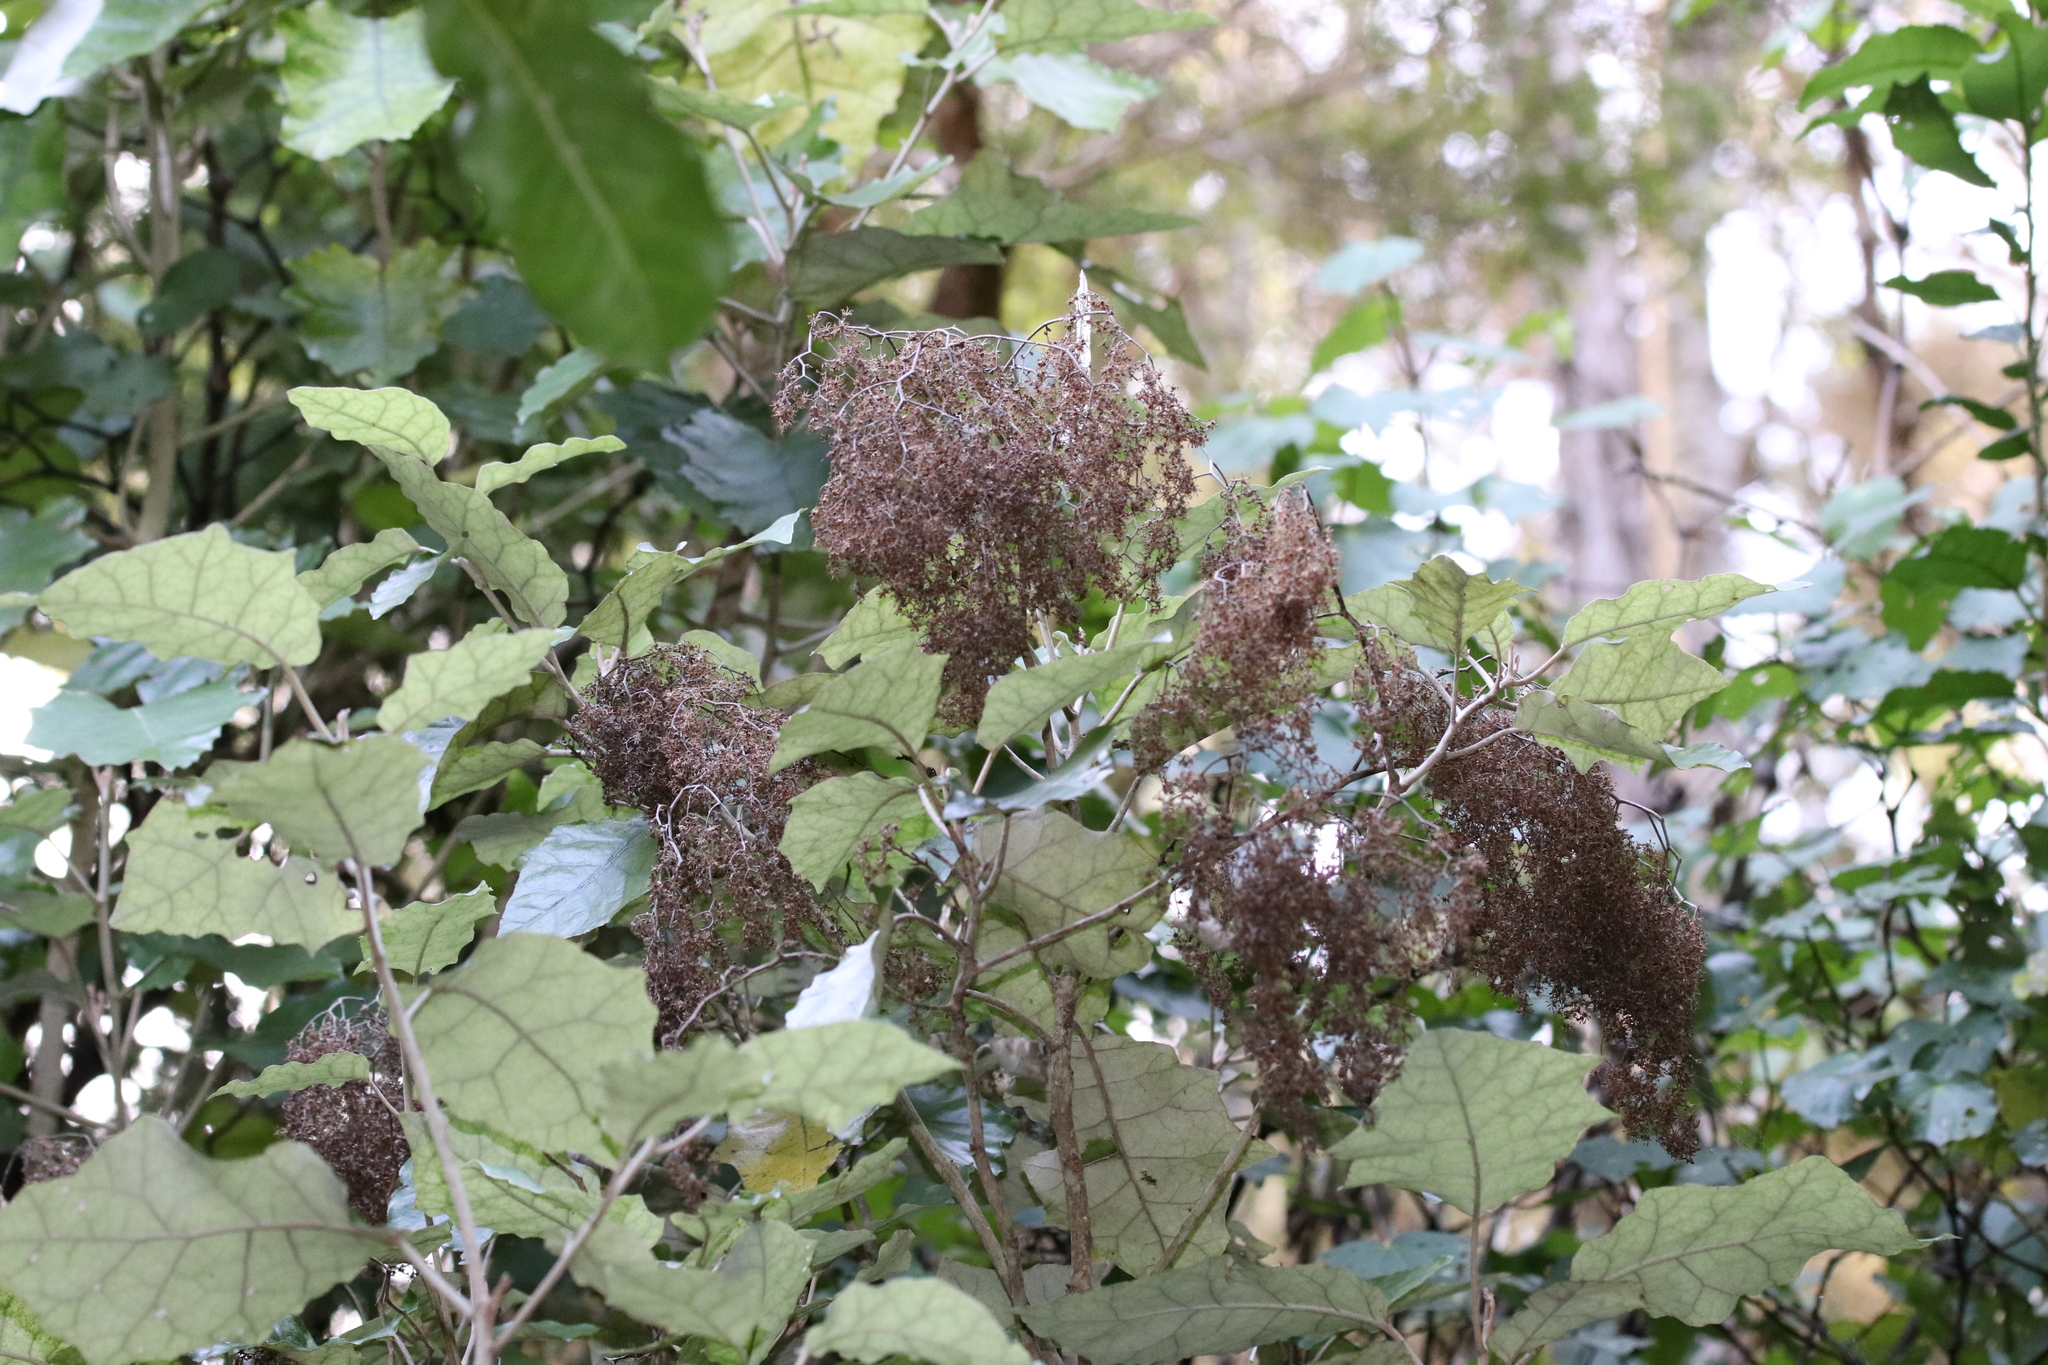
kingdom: Plantae
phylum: Tracheophyta
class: Magnoliopsida
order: Asterales
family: Asteraceae
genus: Brachyglottis
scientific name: Brachyglottis repanda
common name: Hedge ragwort
